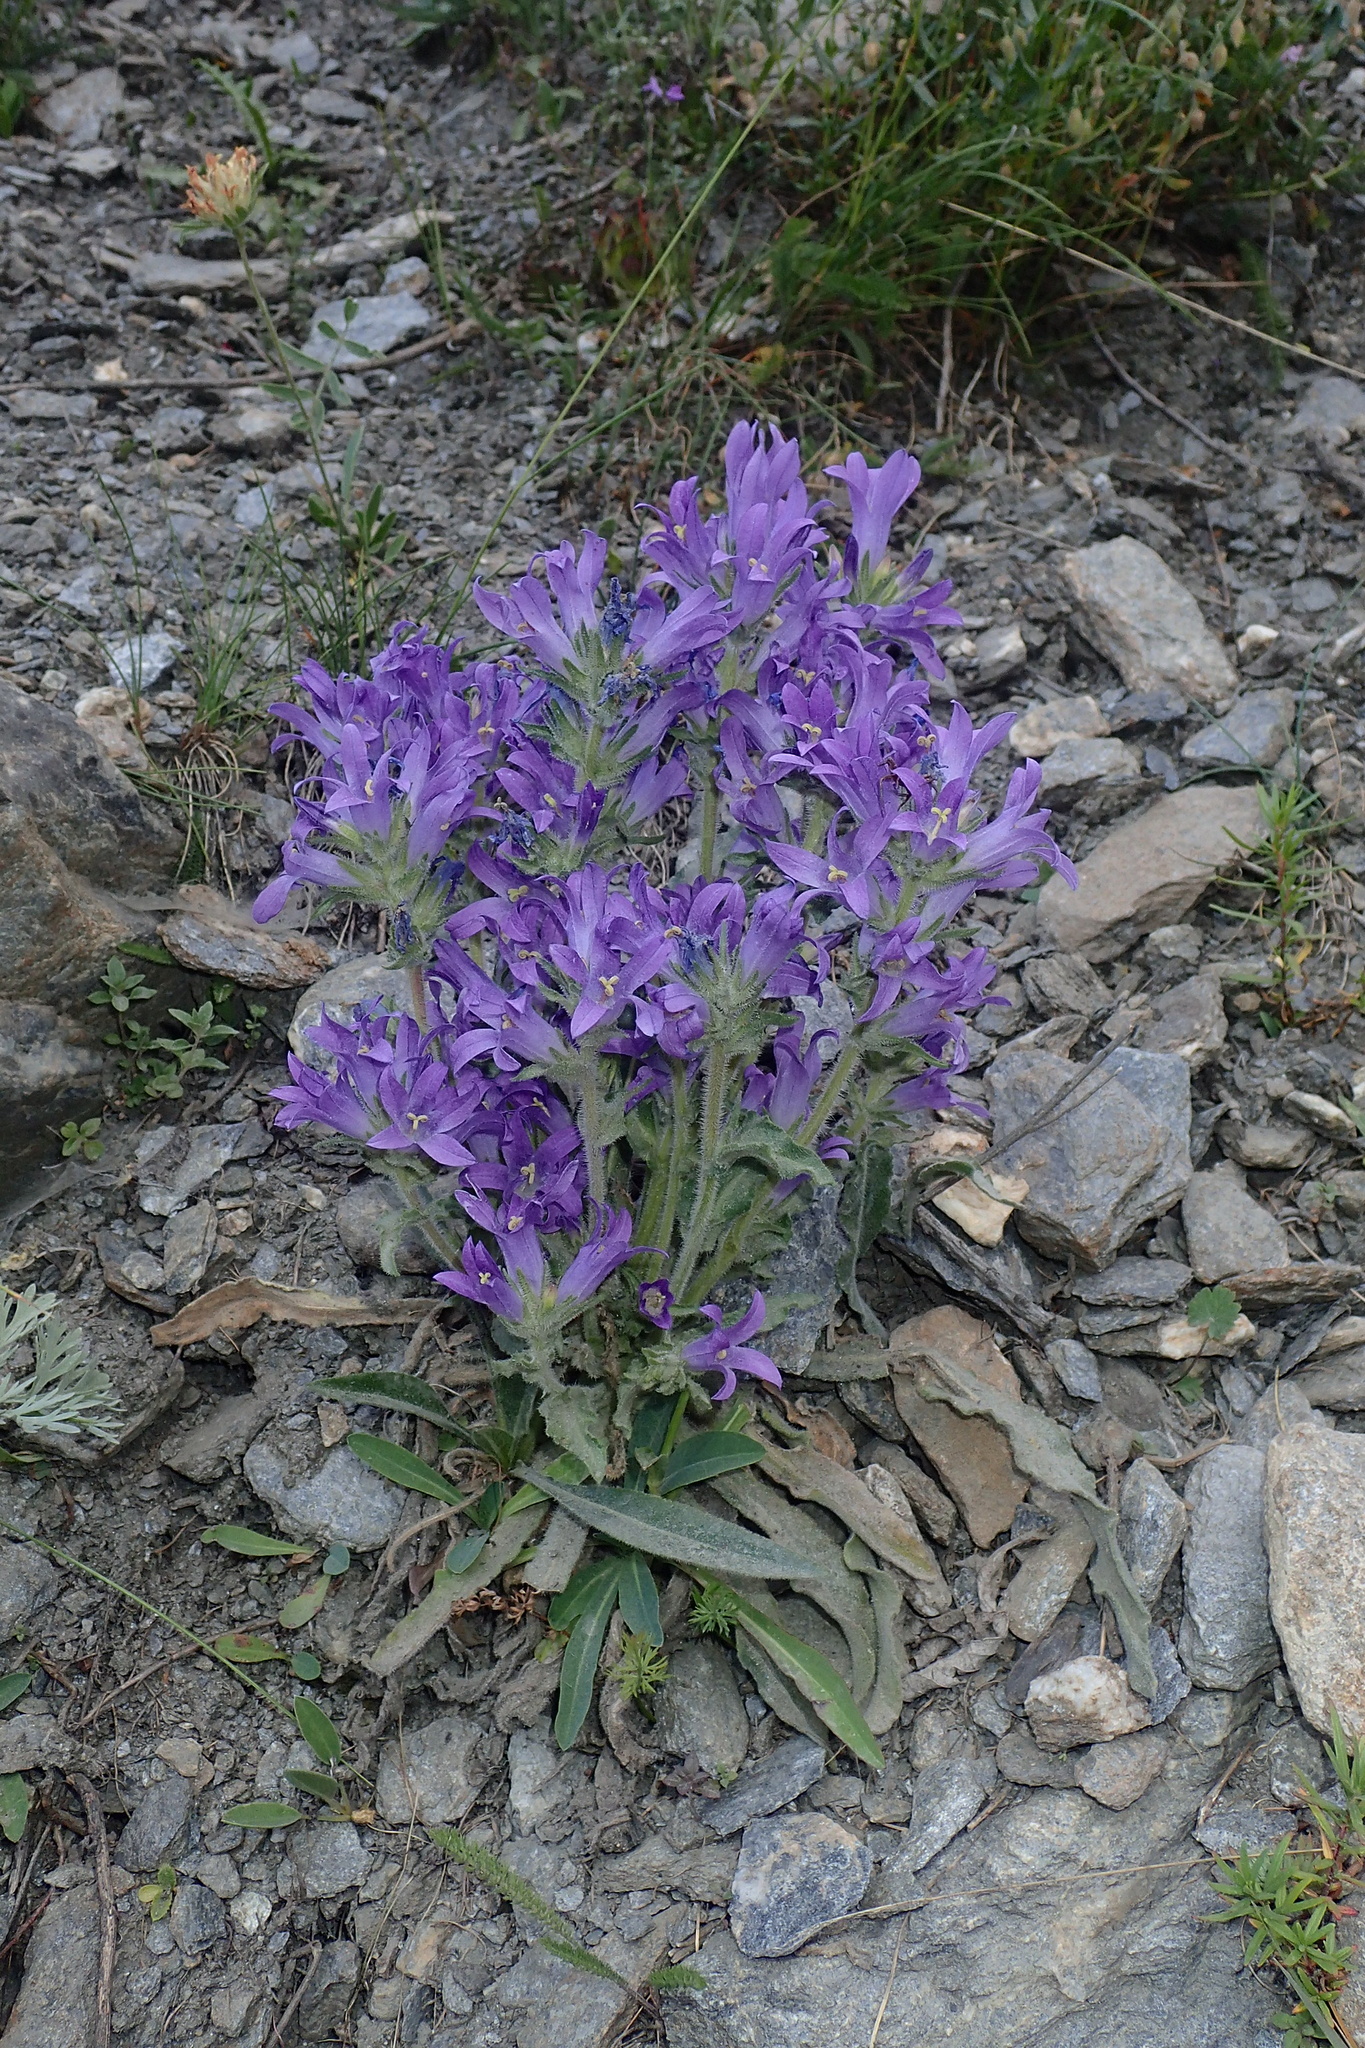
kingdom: Plantae
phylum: Tracheophyta
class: Magnoliopsida
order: Asterales
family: Campanulaceae
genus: Campanula
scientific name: Campanula spicata
